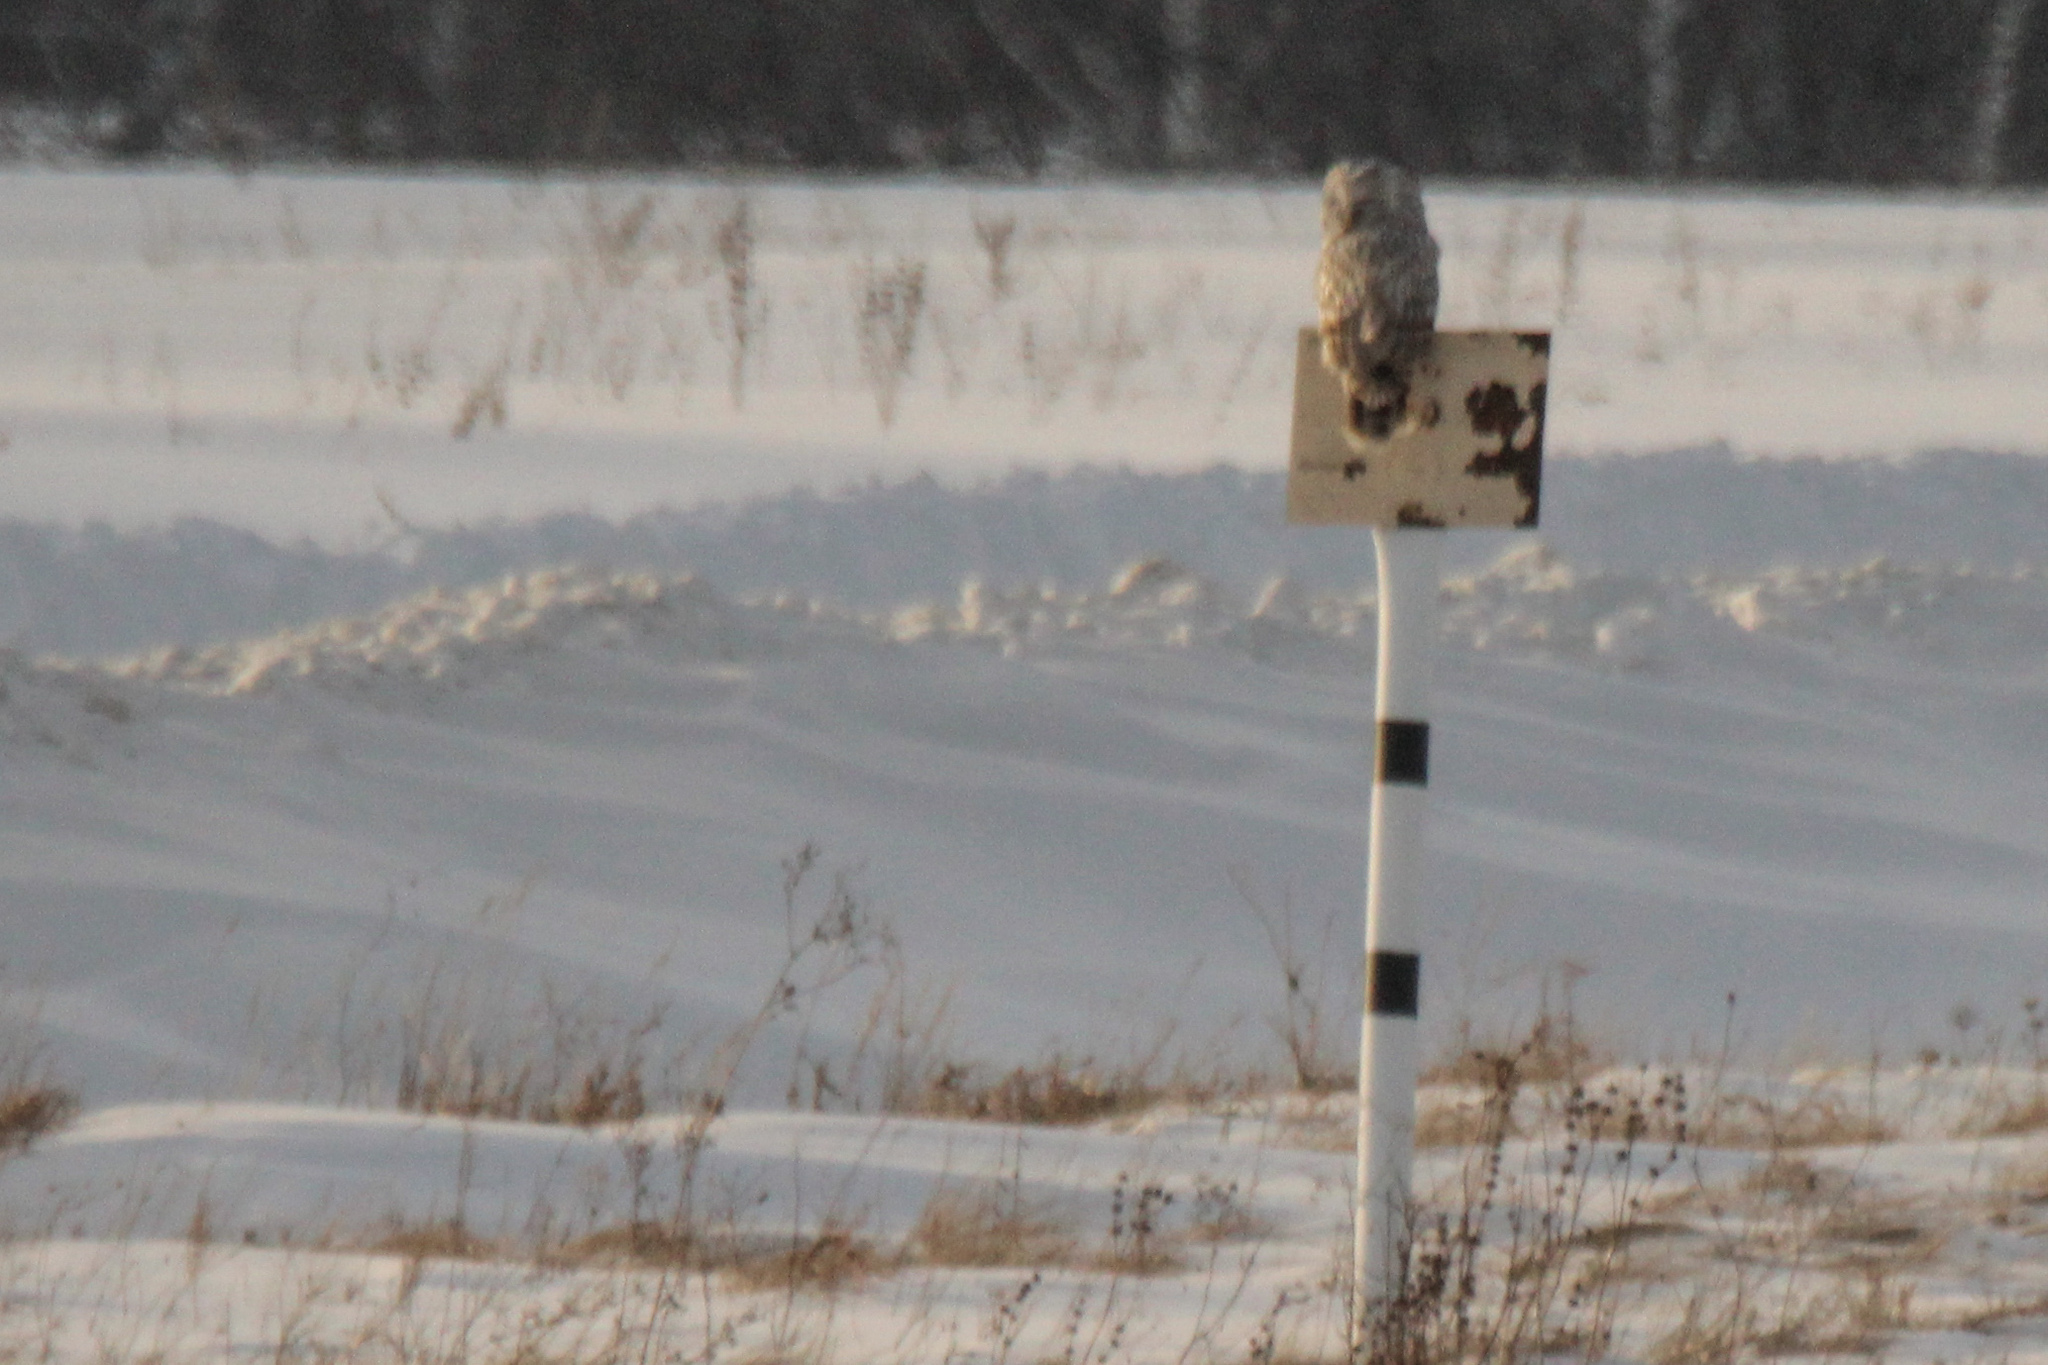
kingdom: Animalia
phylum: Chordata
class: Aves
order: Strigiformes
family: Strigidae
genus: Strix
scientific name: Strix uralensis
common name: Ural owl
